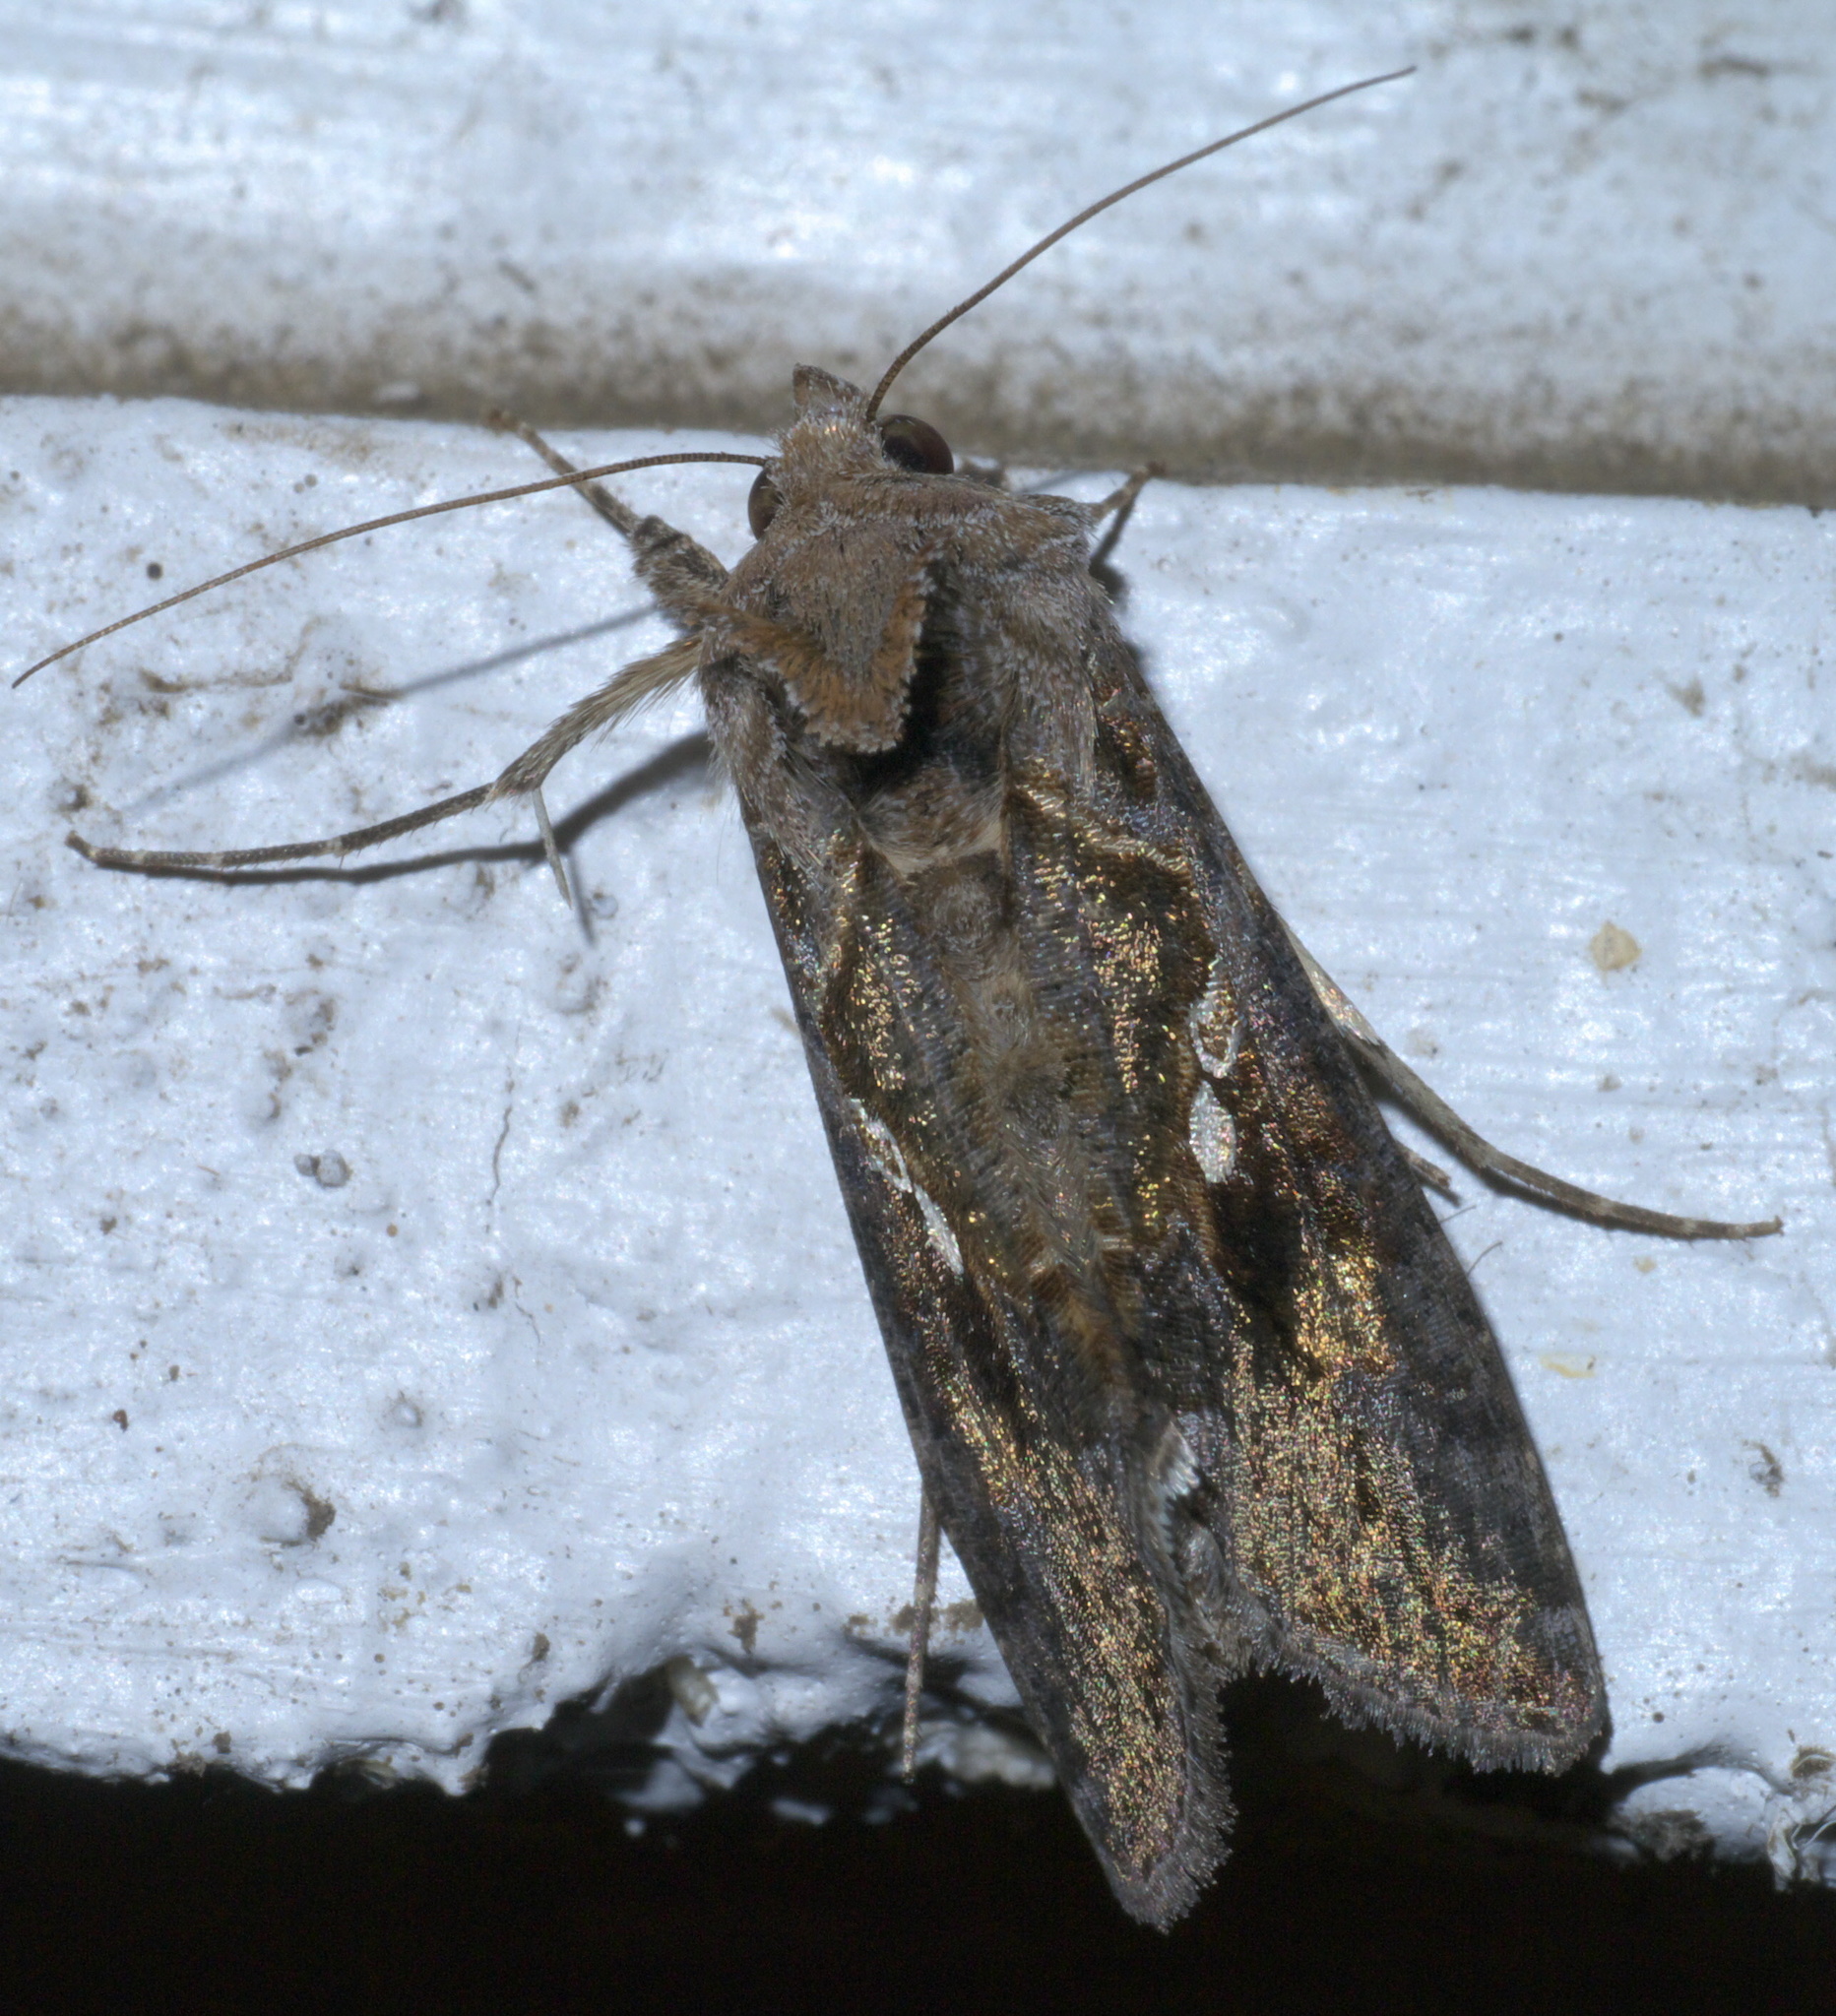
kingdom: Animalia
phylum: Arthropoda
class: Insecta
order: Lepidoptera
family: Noctuidae
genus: Chrysodeixis
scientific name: Chrysodeixis includens
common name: Cutworm moth
